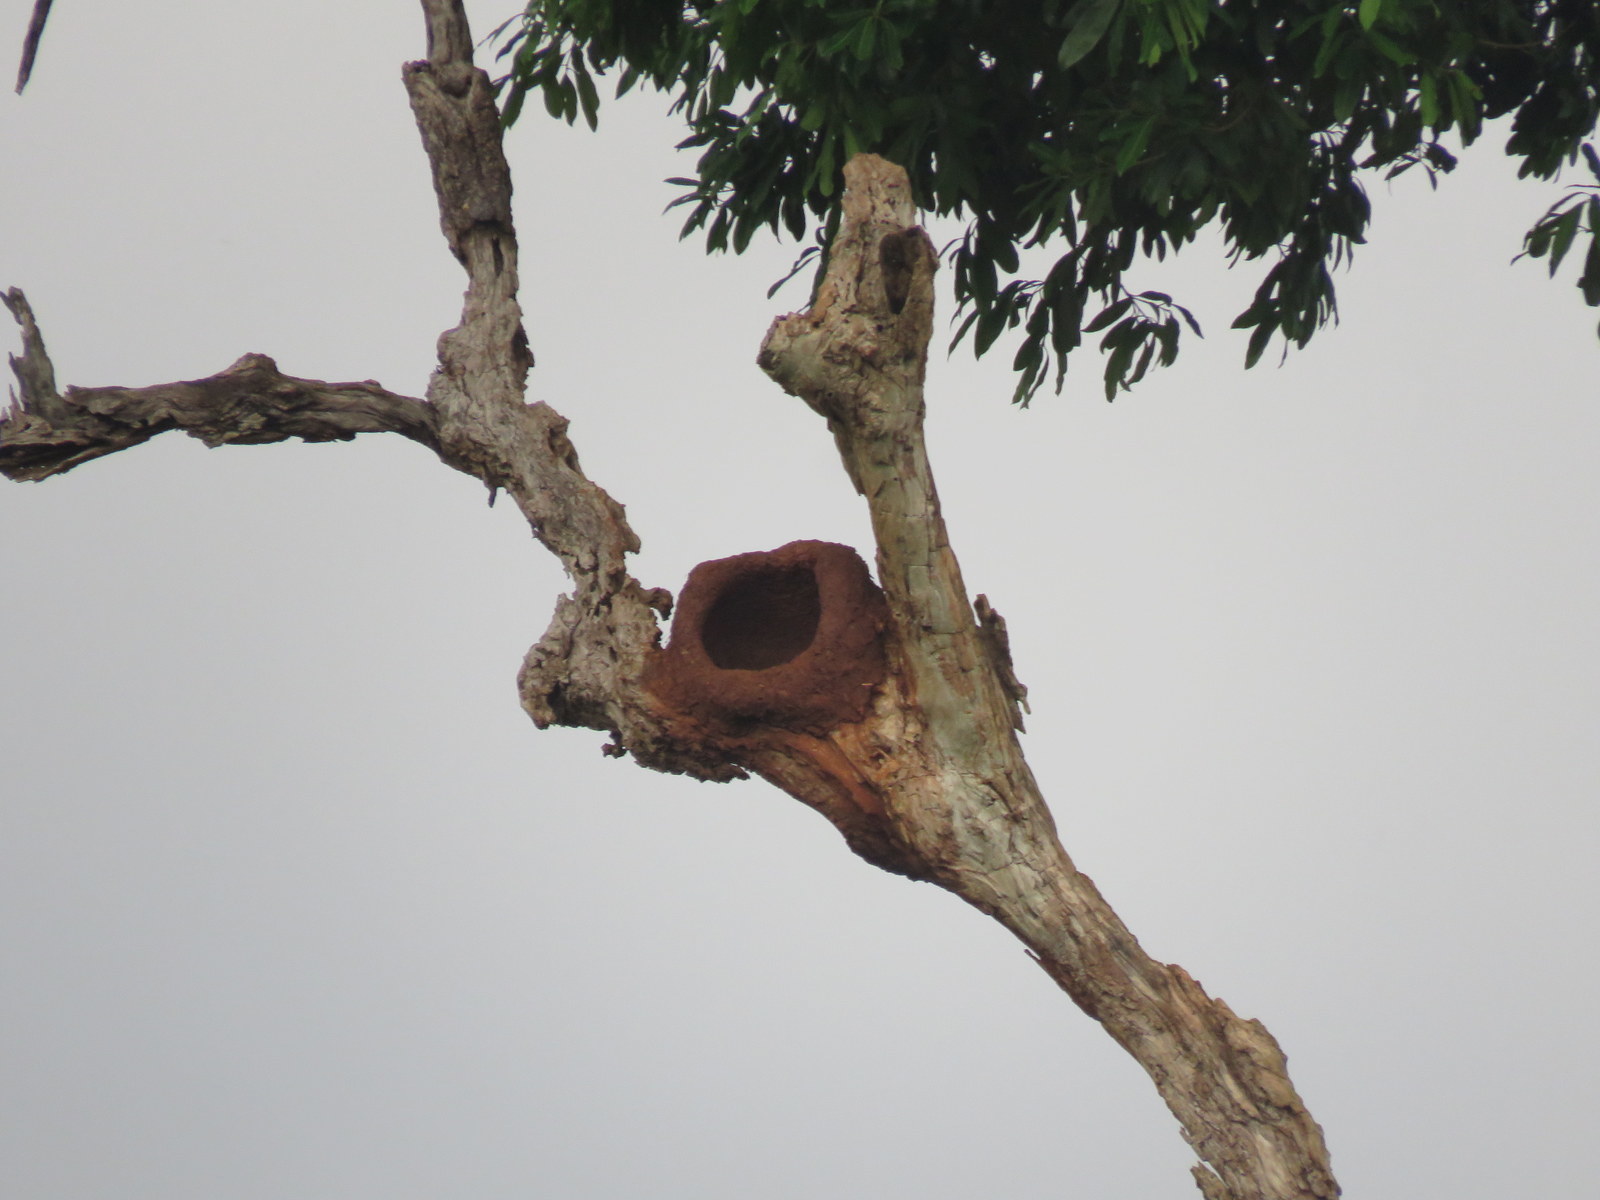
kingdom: Animalia
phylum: Chordata
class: Aves
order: Passeriformes
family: Furnariidae
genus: Furnarius
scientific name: Furnarius rufus
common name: Rufous hornero
